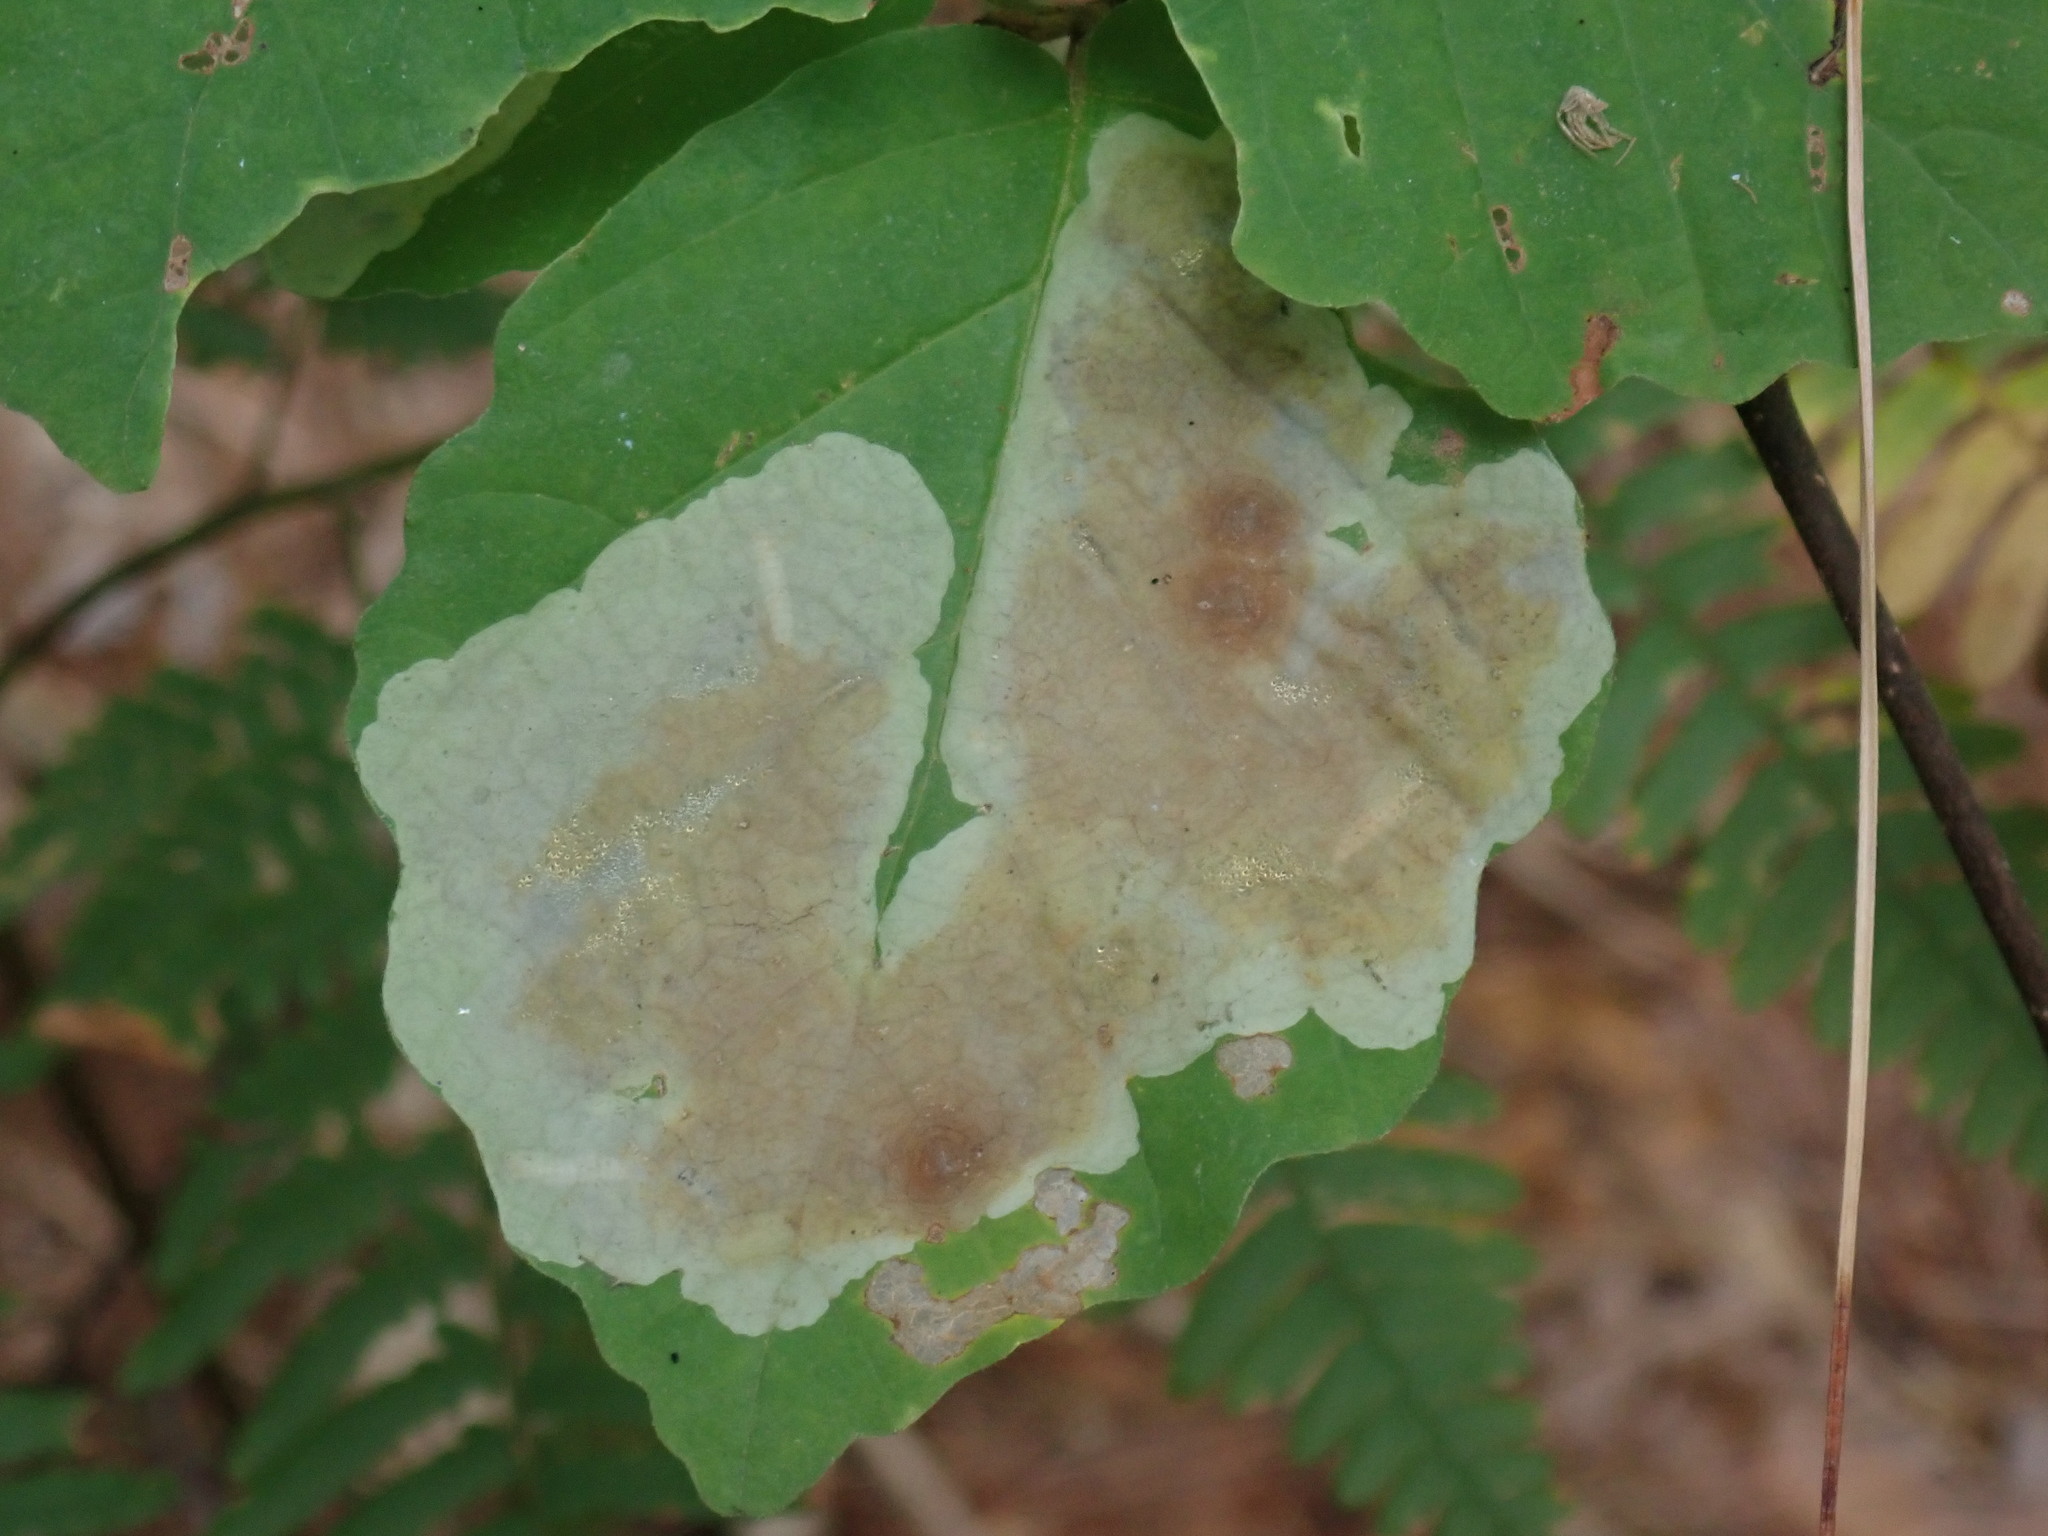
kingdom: Animalia
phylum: Arthropoda
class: Insecta
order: Lepidoptera
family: Gracillariidae
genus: Cameraria
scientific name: Cameraria hamameliella
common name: Witchhazel leafminer
